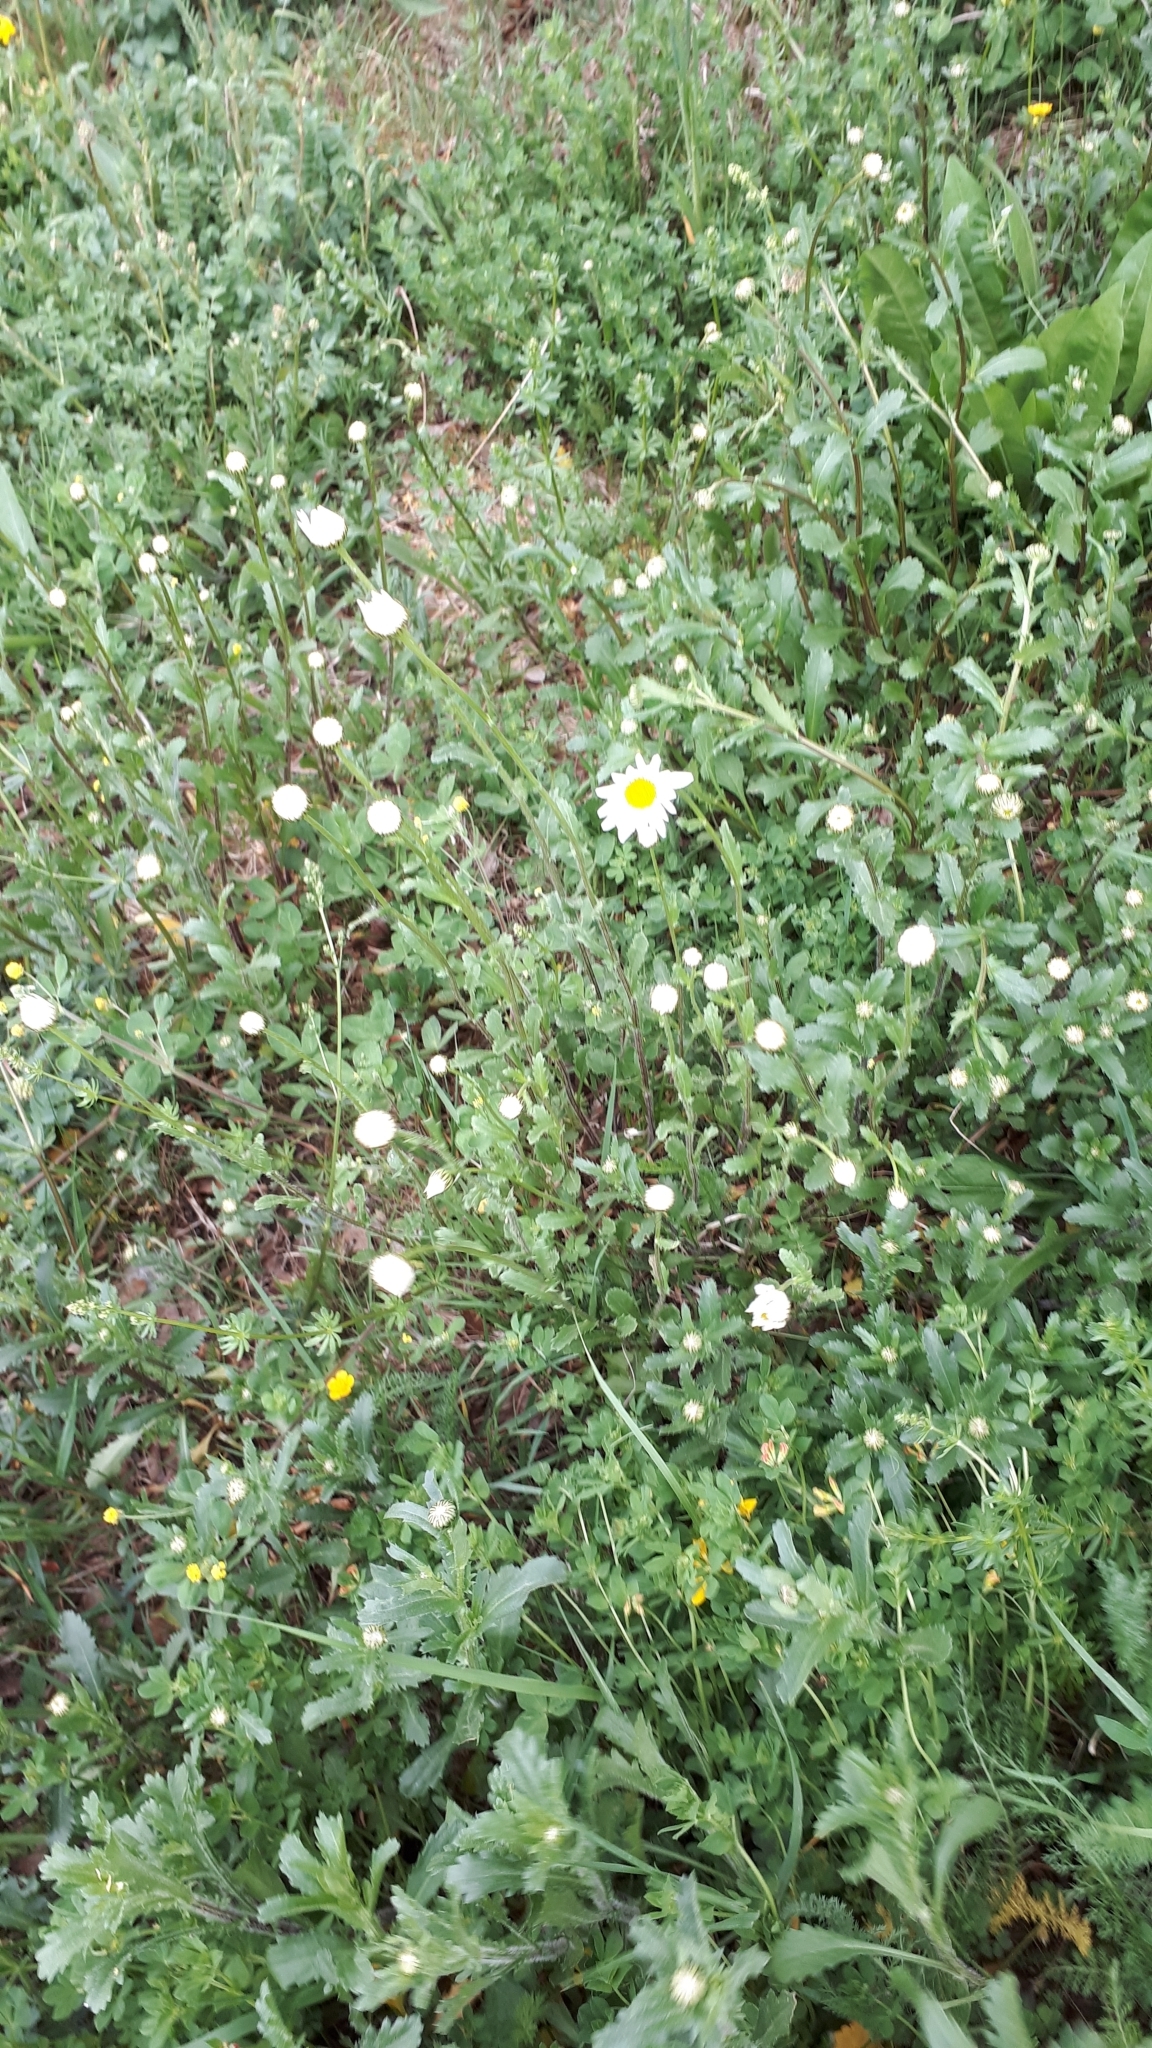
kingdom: Plantae
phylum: Tracheophyta
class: Magnoliopsida
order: Asterales
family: Asteraceae
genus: Leucanthemum
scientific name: Leucanthemum ircutianum
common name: Daisy
